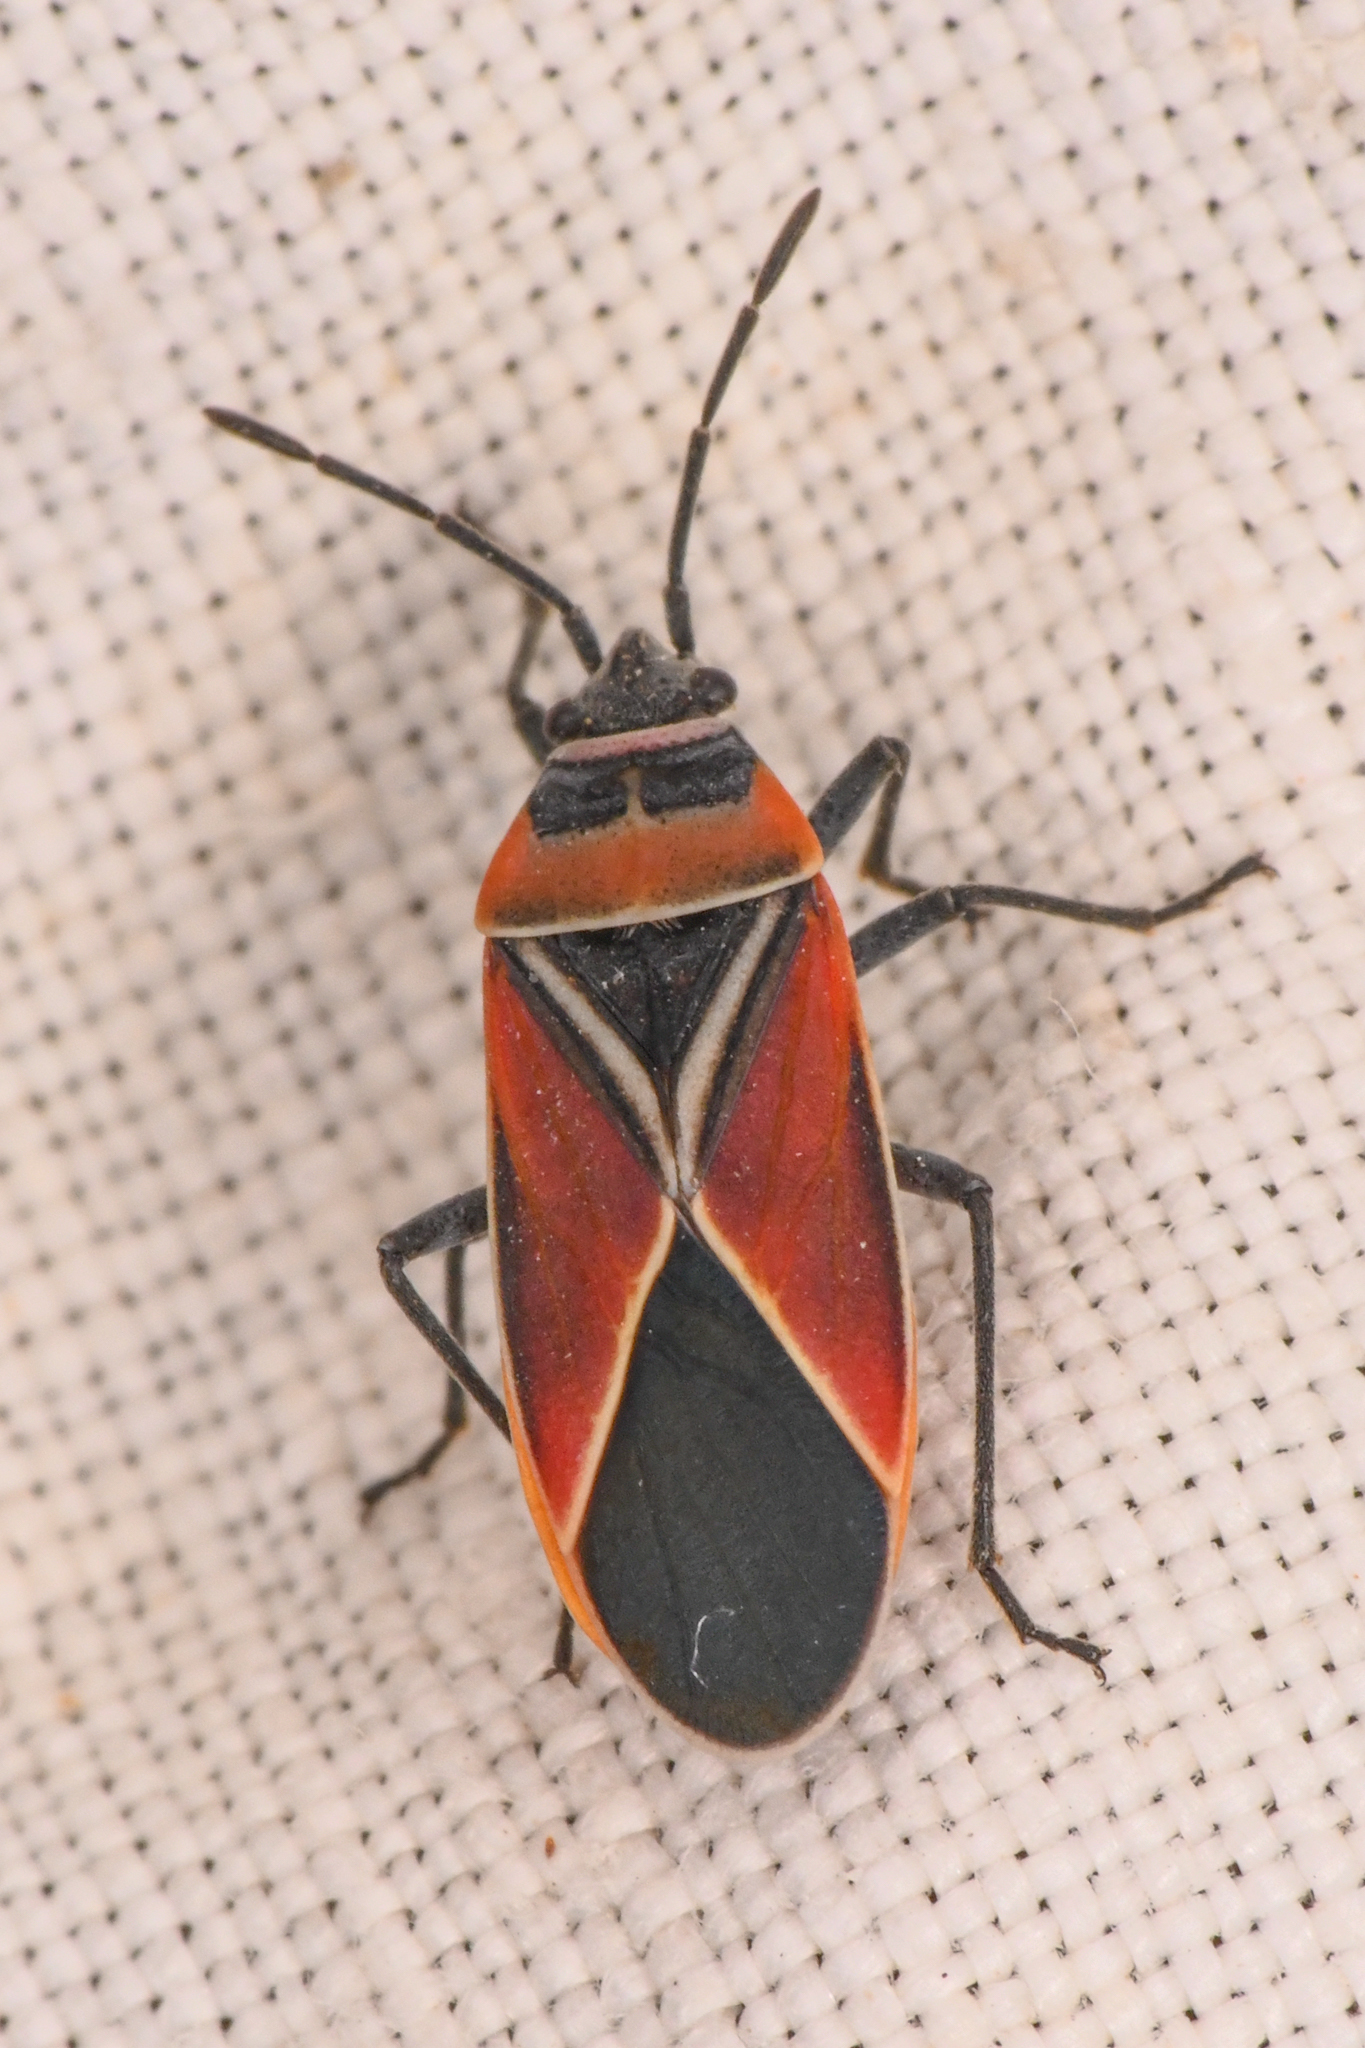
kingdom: Animalia
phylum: Arthropoda
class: Insecta
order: Hemiptera
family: Lygaeidae
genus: Neacoryphus
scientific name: Neacoryphus bicrucis
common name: Lygaeid bug
